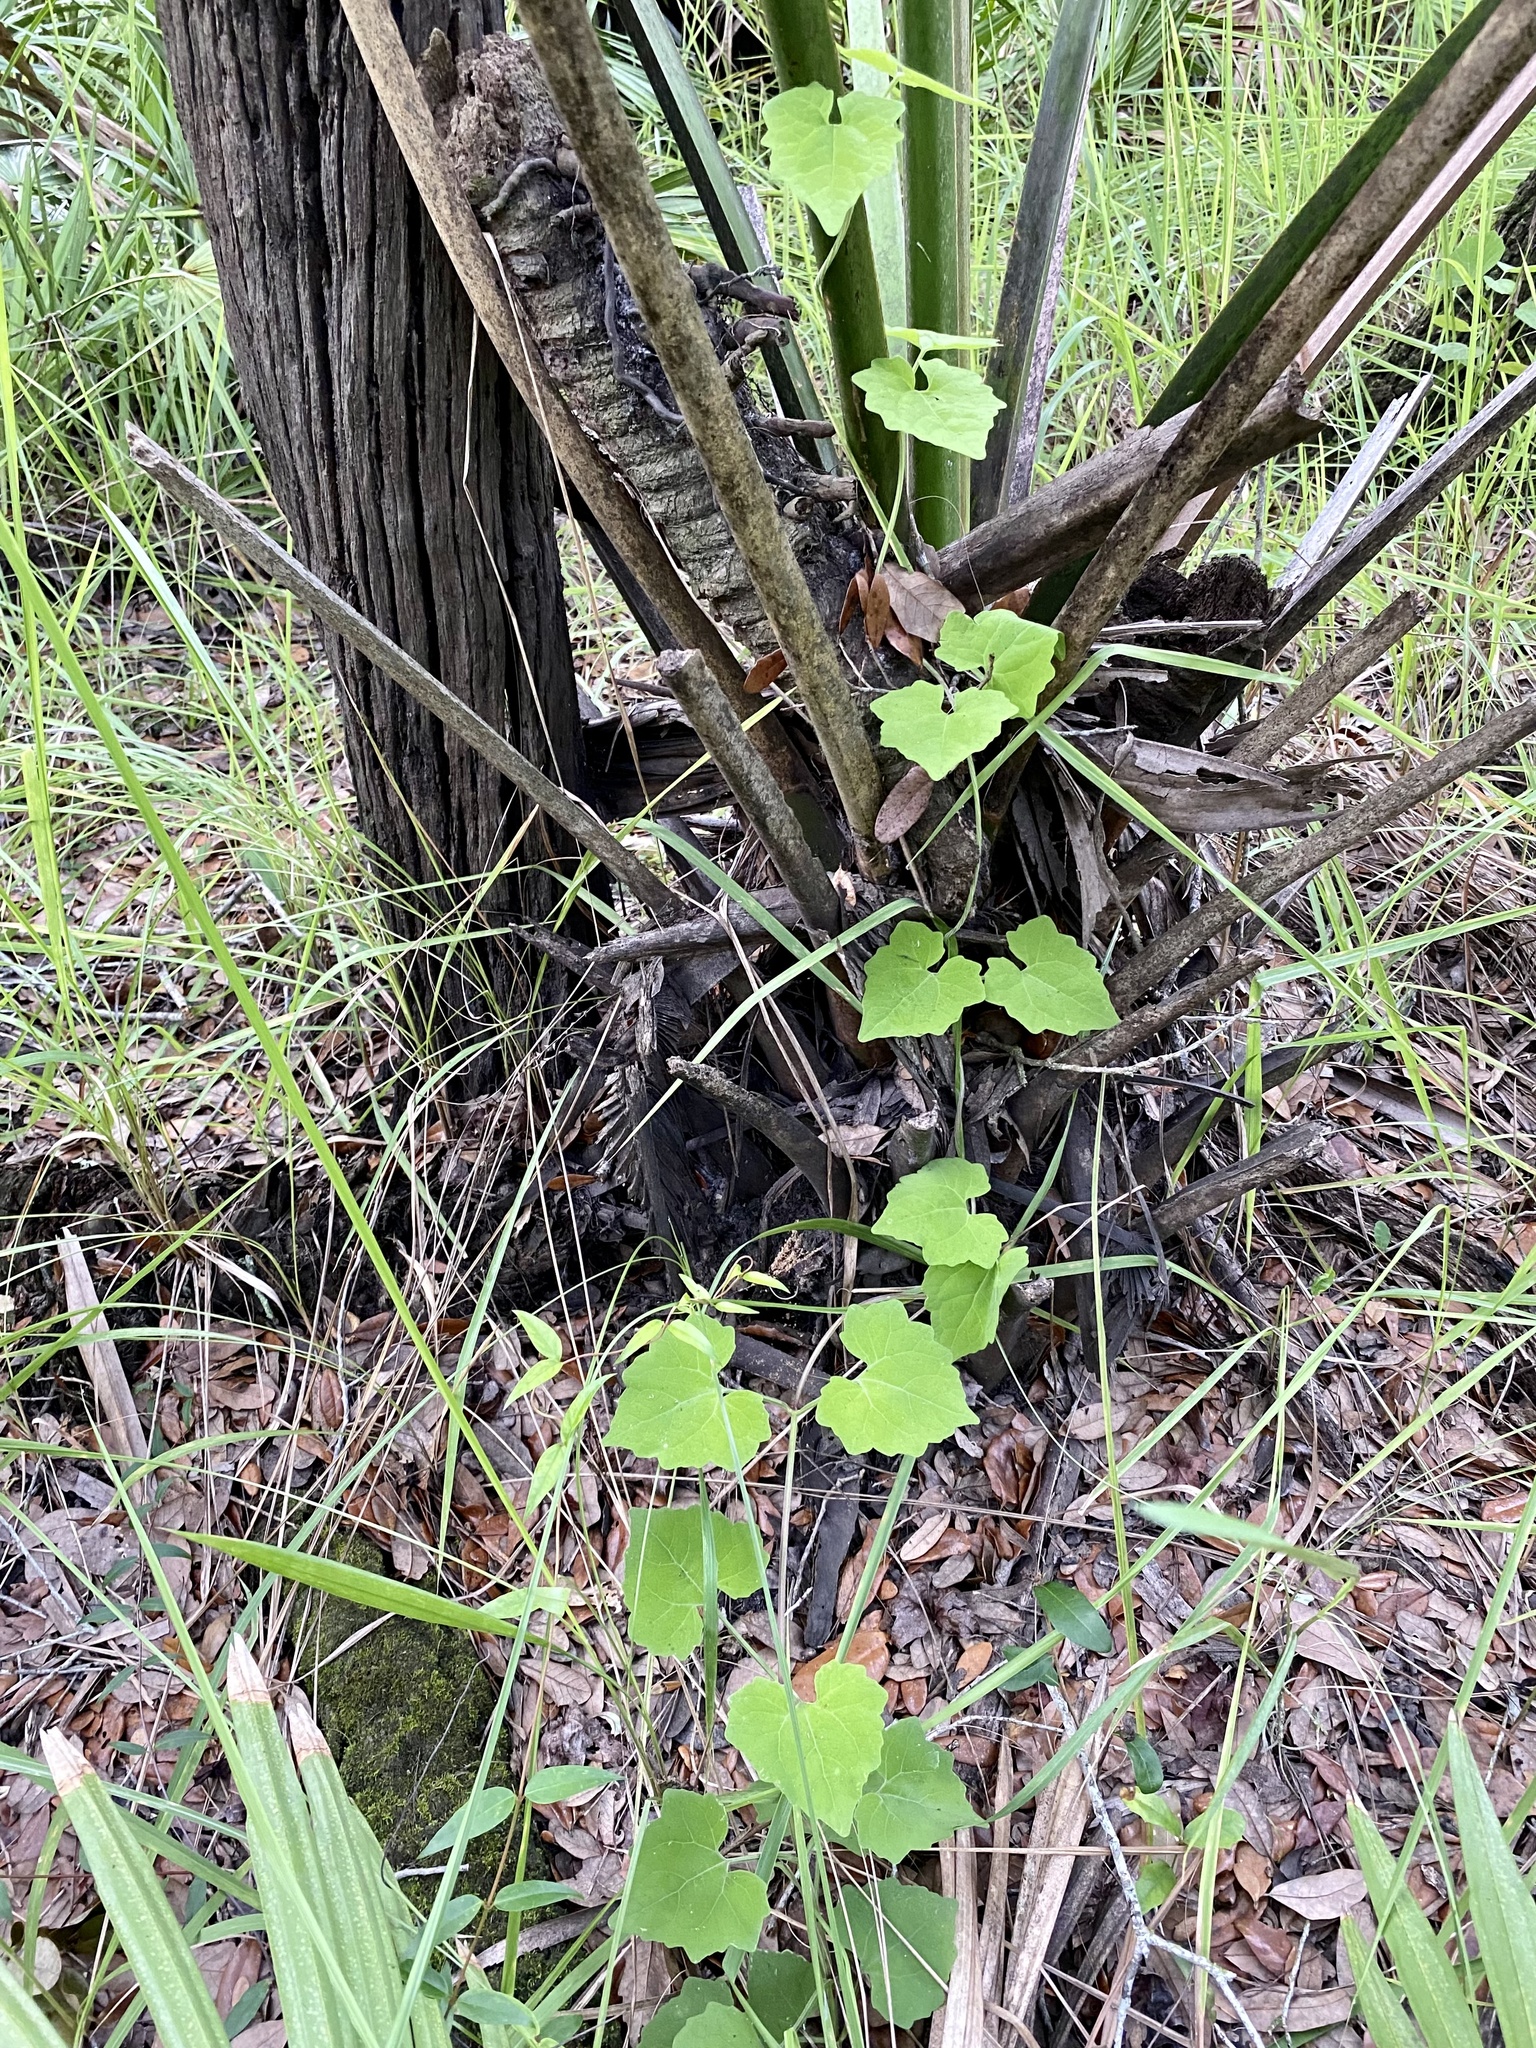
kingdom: Plantae
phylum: Tracheophyta
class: Magnoliopsida
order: Asterales
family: Asteraceae
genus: Mikania
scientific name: Mikania cordifolia
